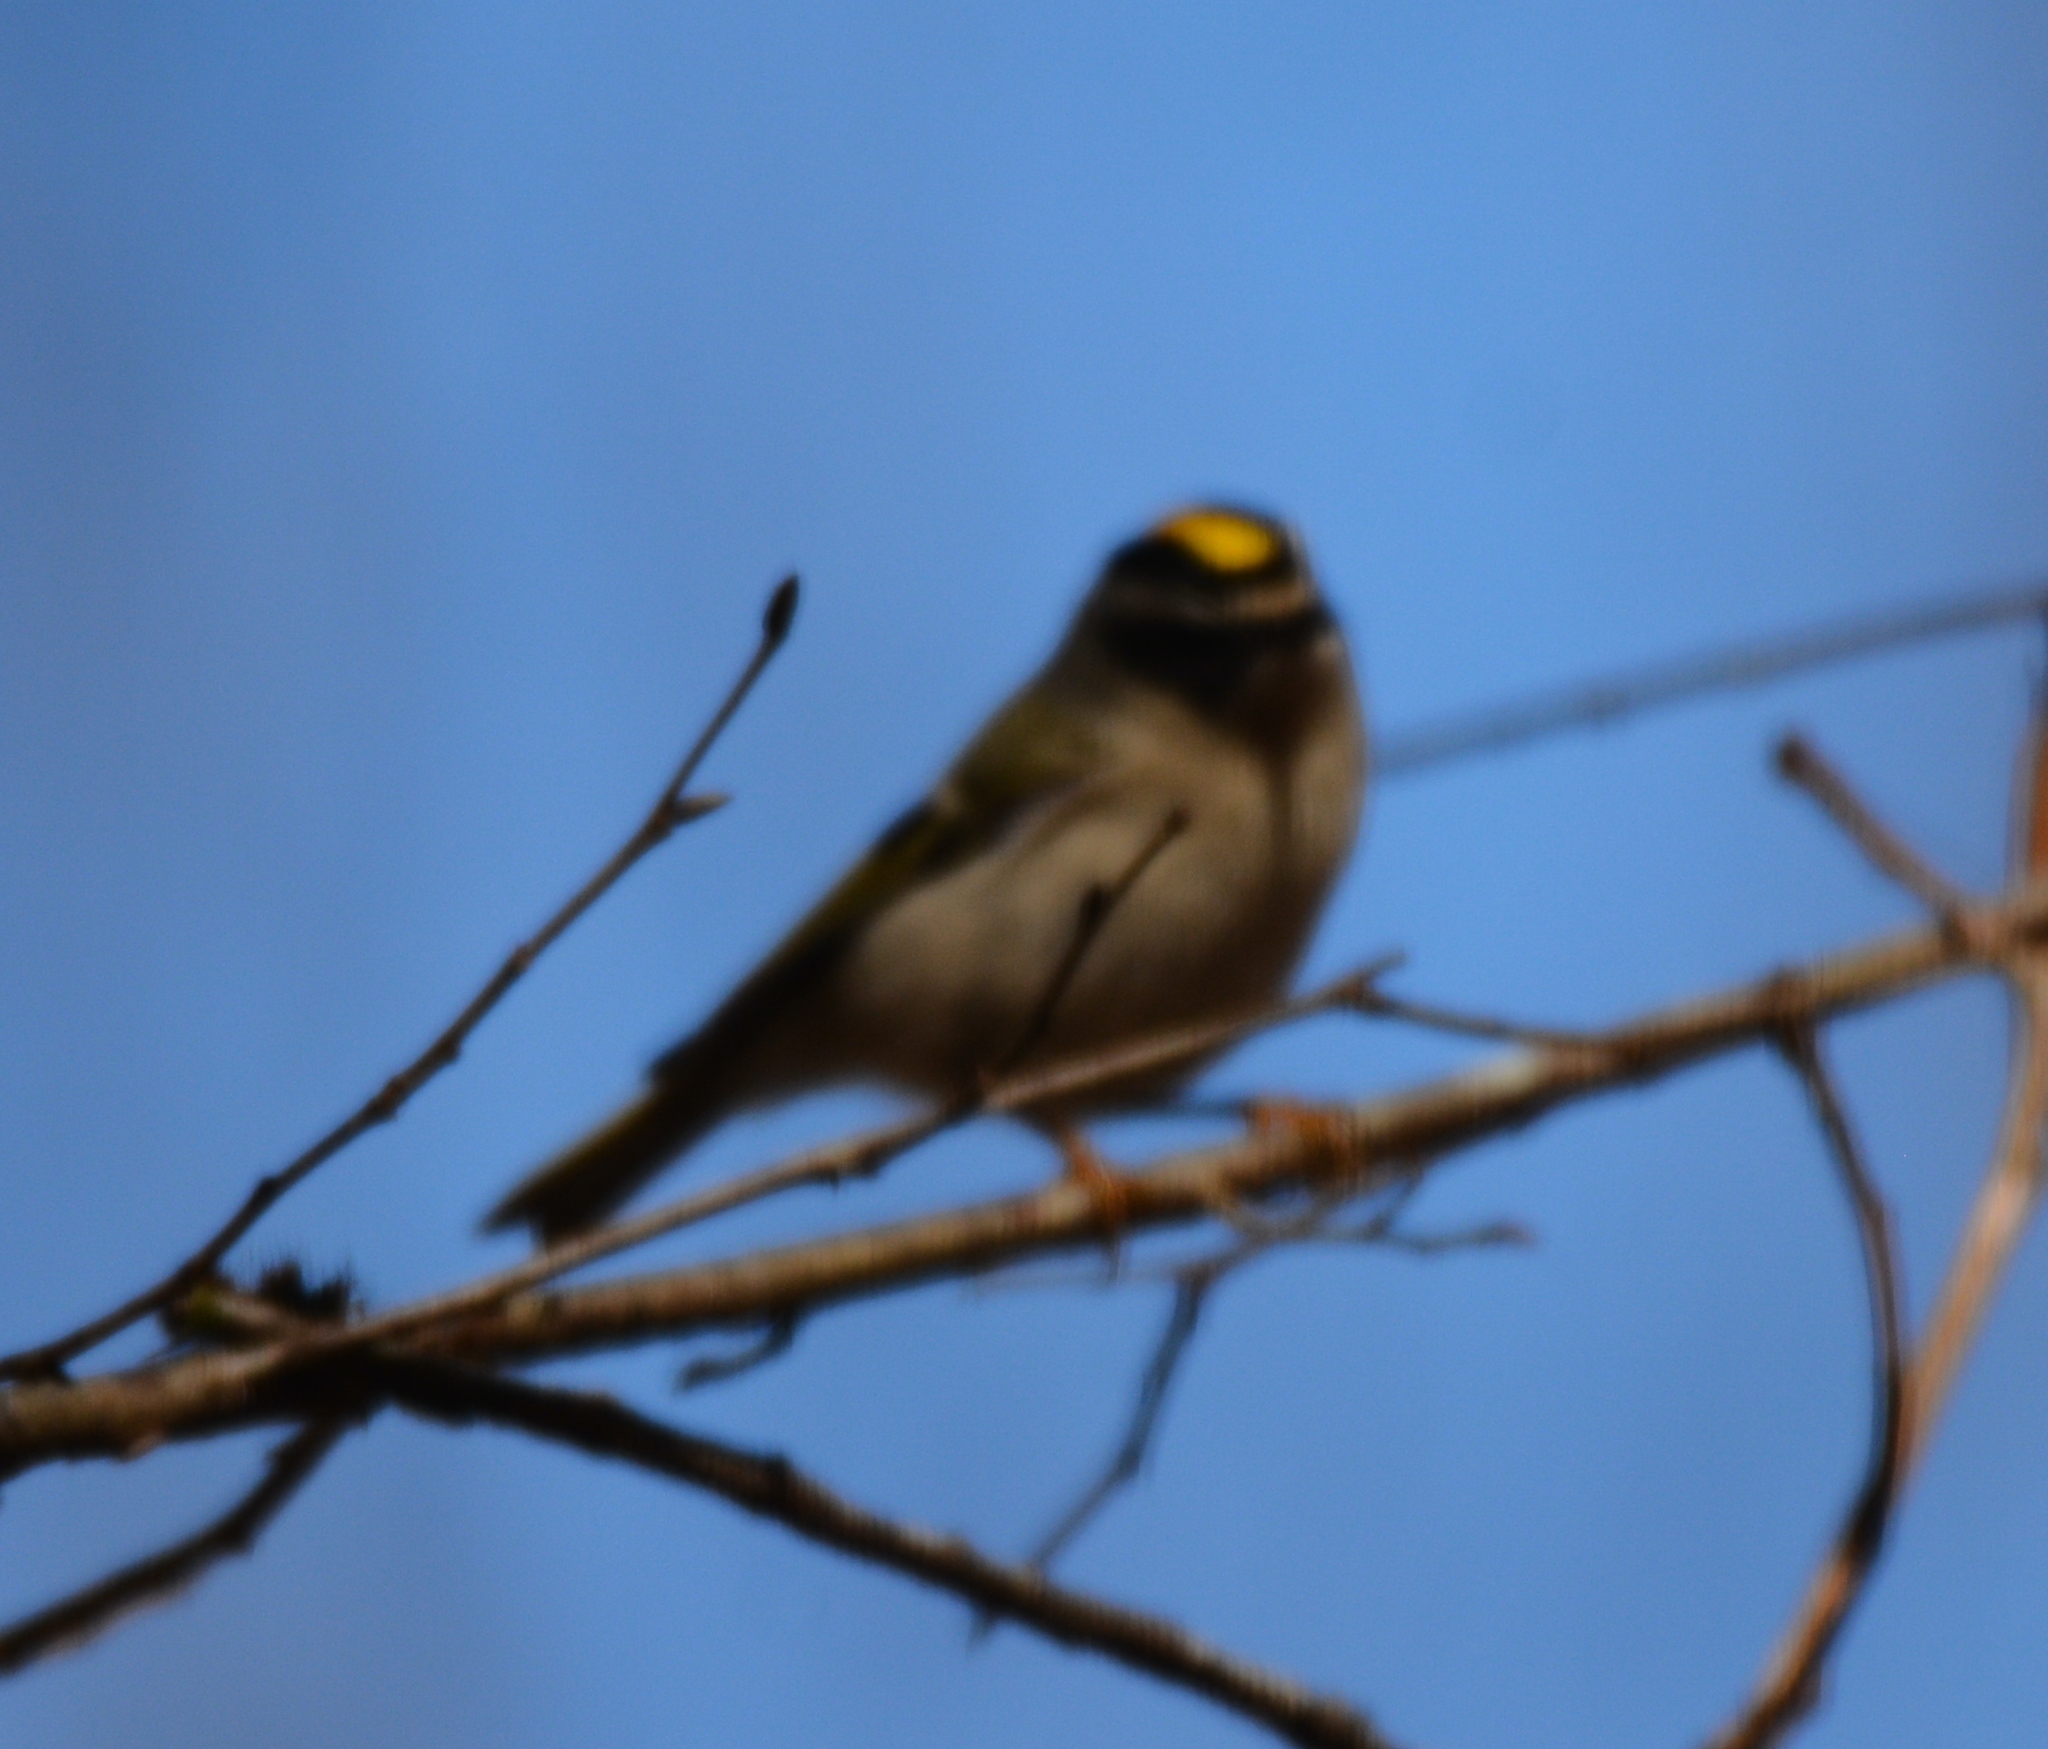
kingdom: Animalia
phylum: Chordata
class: Aves
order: Passeriformes
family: Regulidae
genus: Regulus
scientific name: Regulus satrapa
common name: Golden-crowned kinglet
